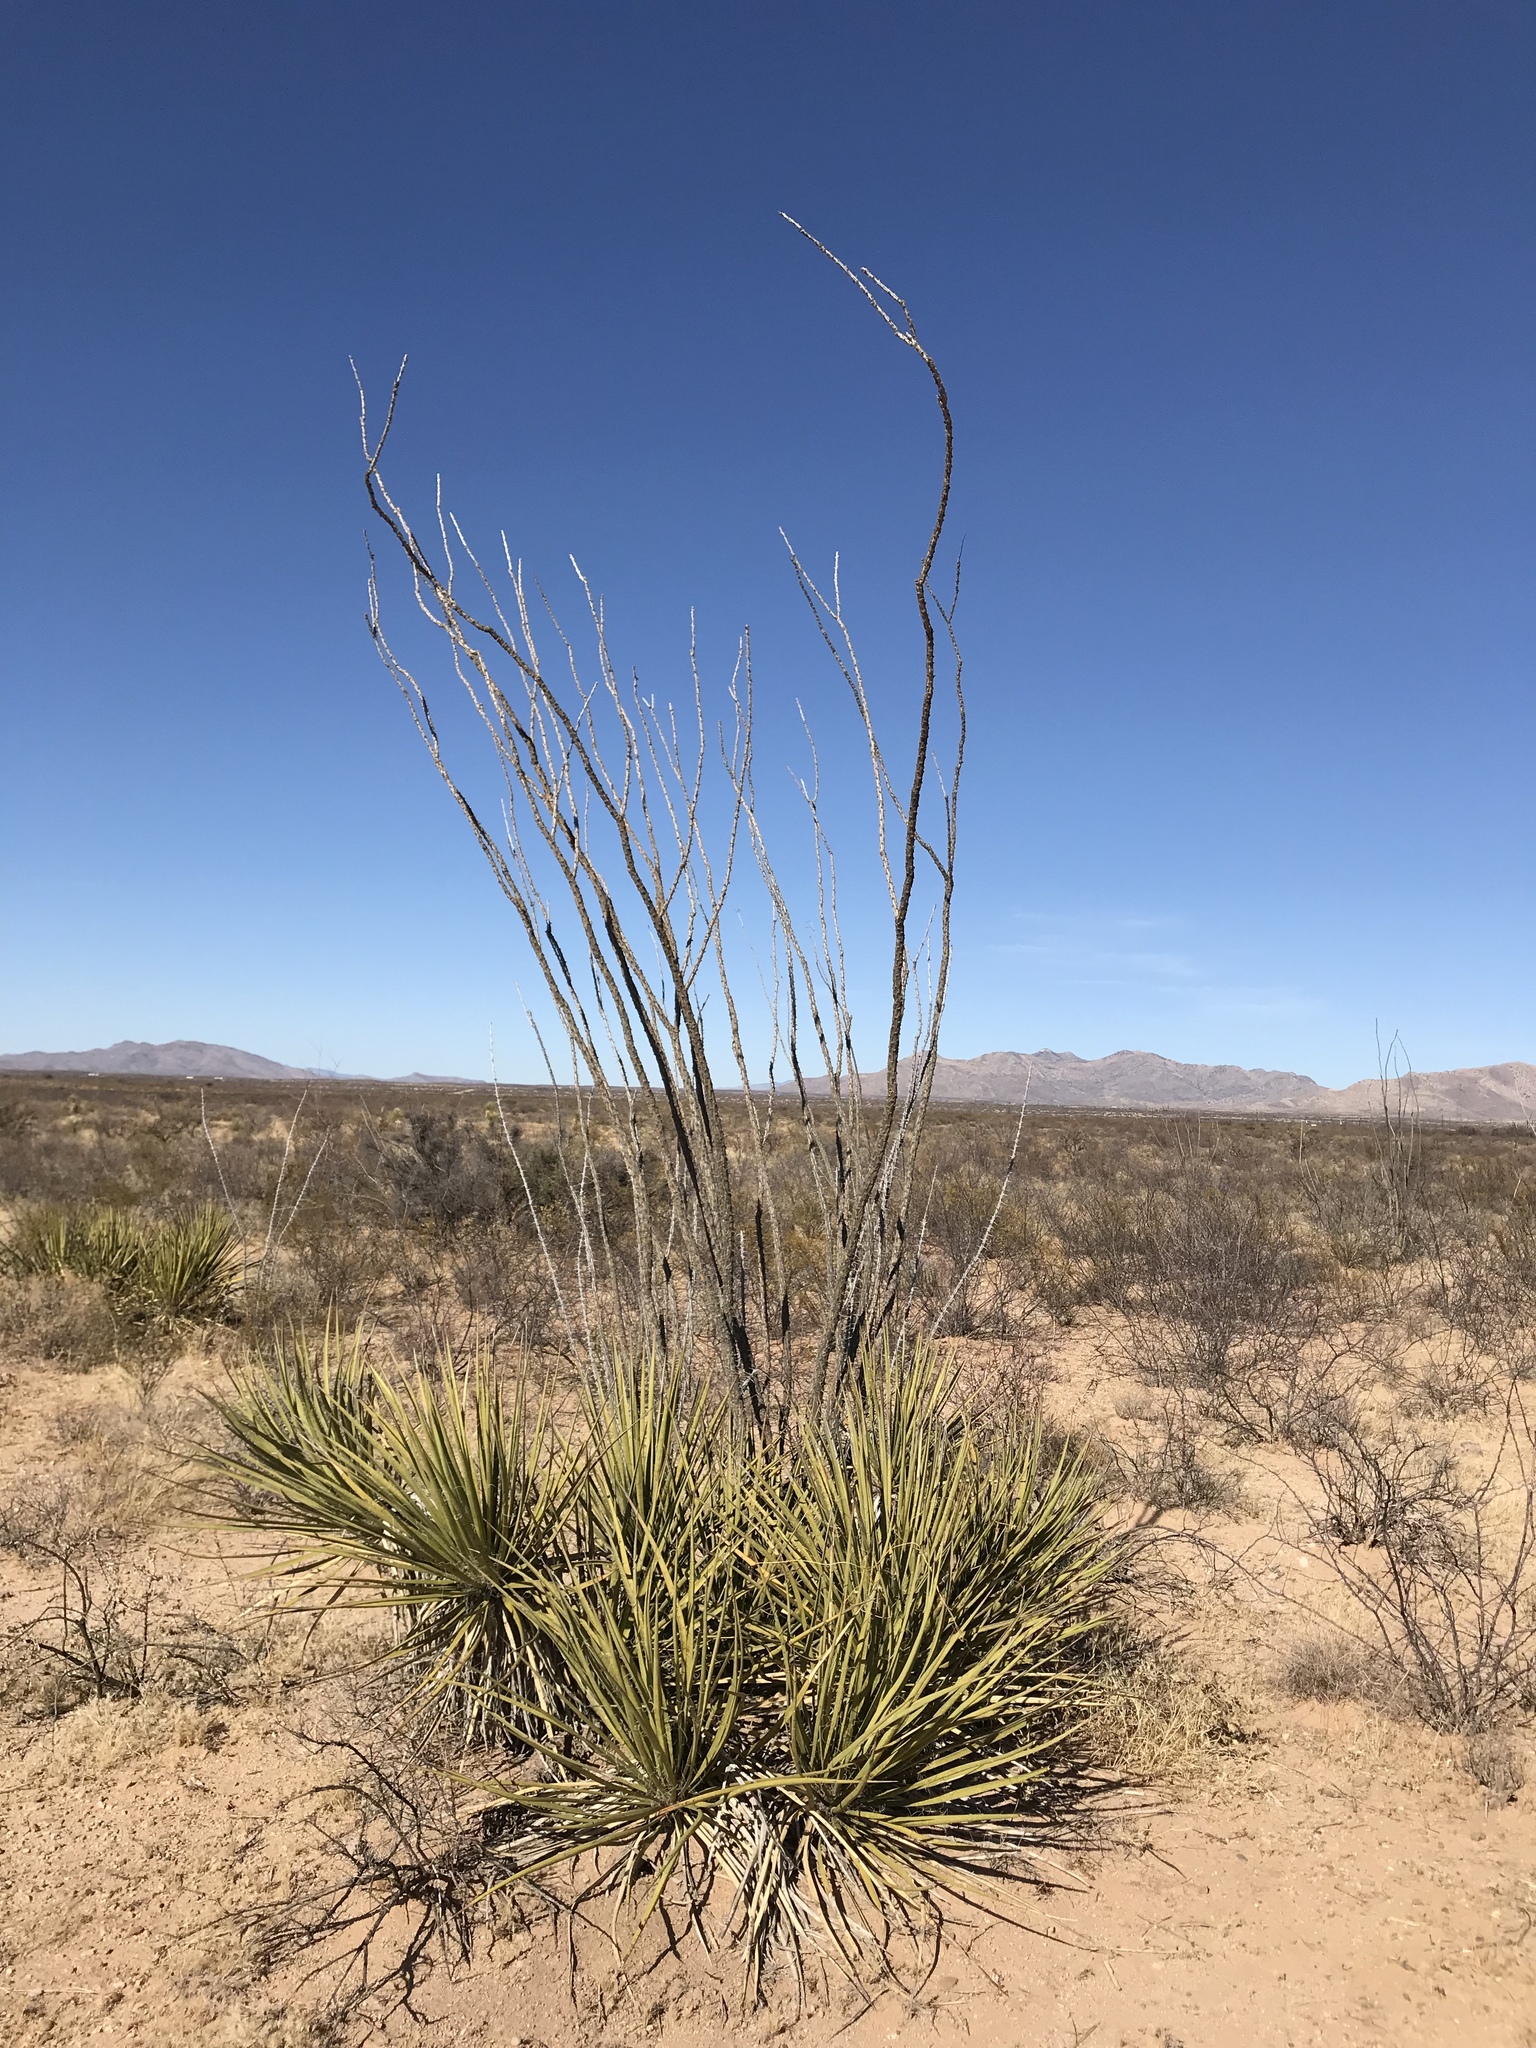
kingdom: Plantae
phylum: Tracheophyta
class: Liliopsida
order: Asparagales
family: Asparagaceae
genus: Yucca
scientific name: Yucca baccata
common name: Banana yucca
